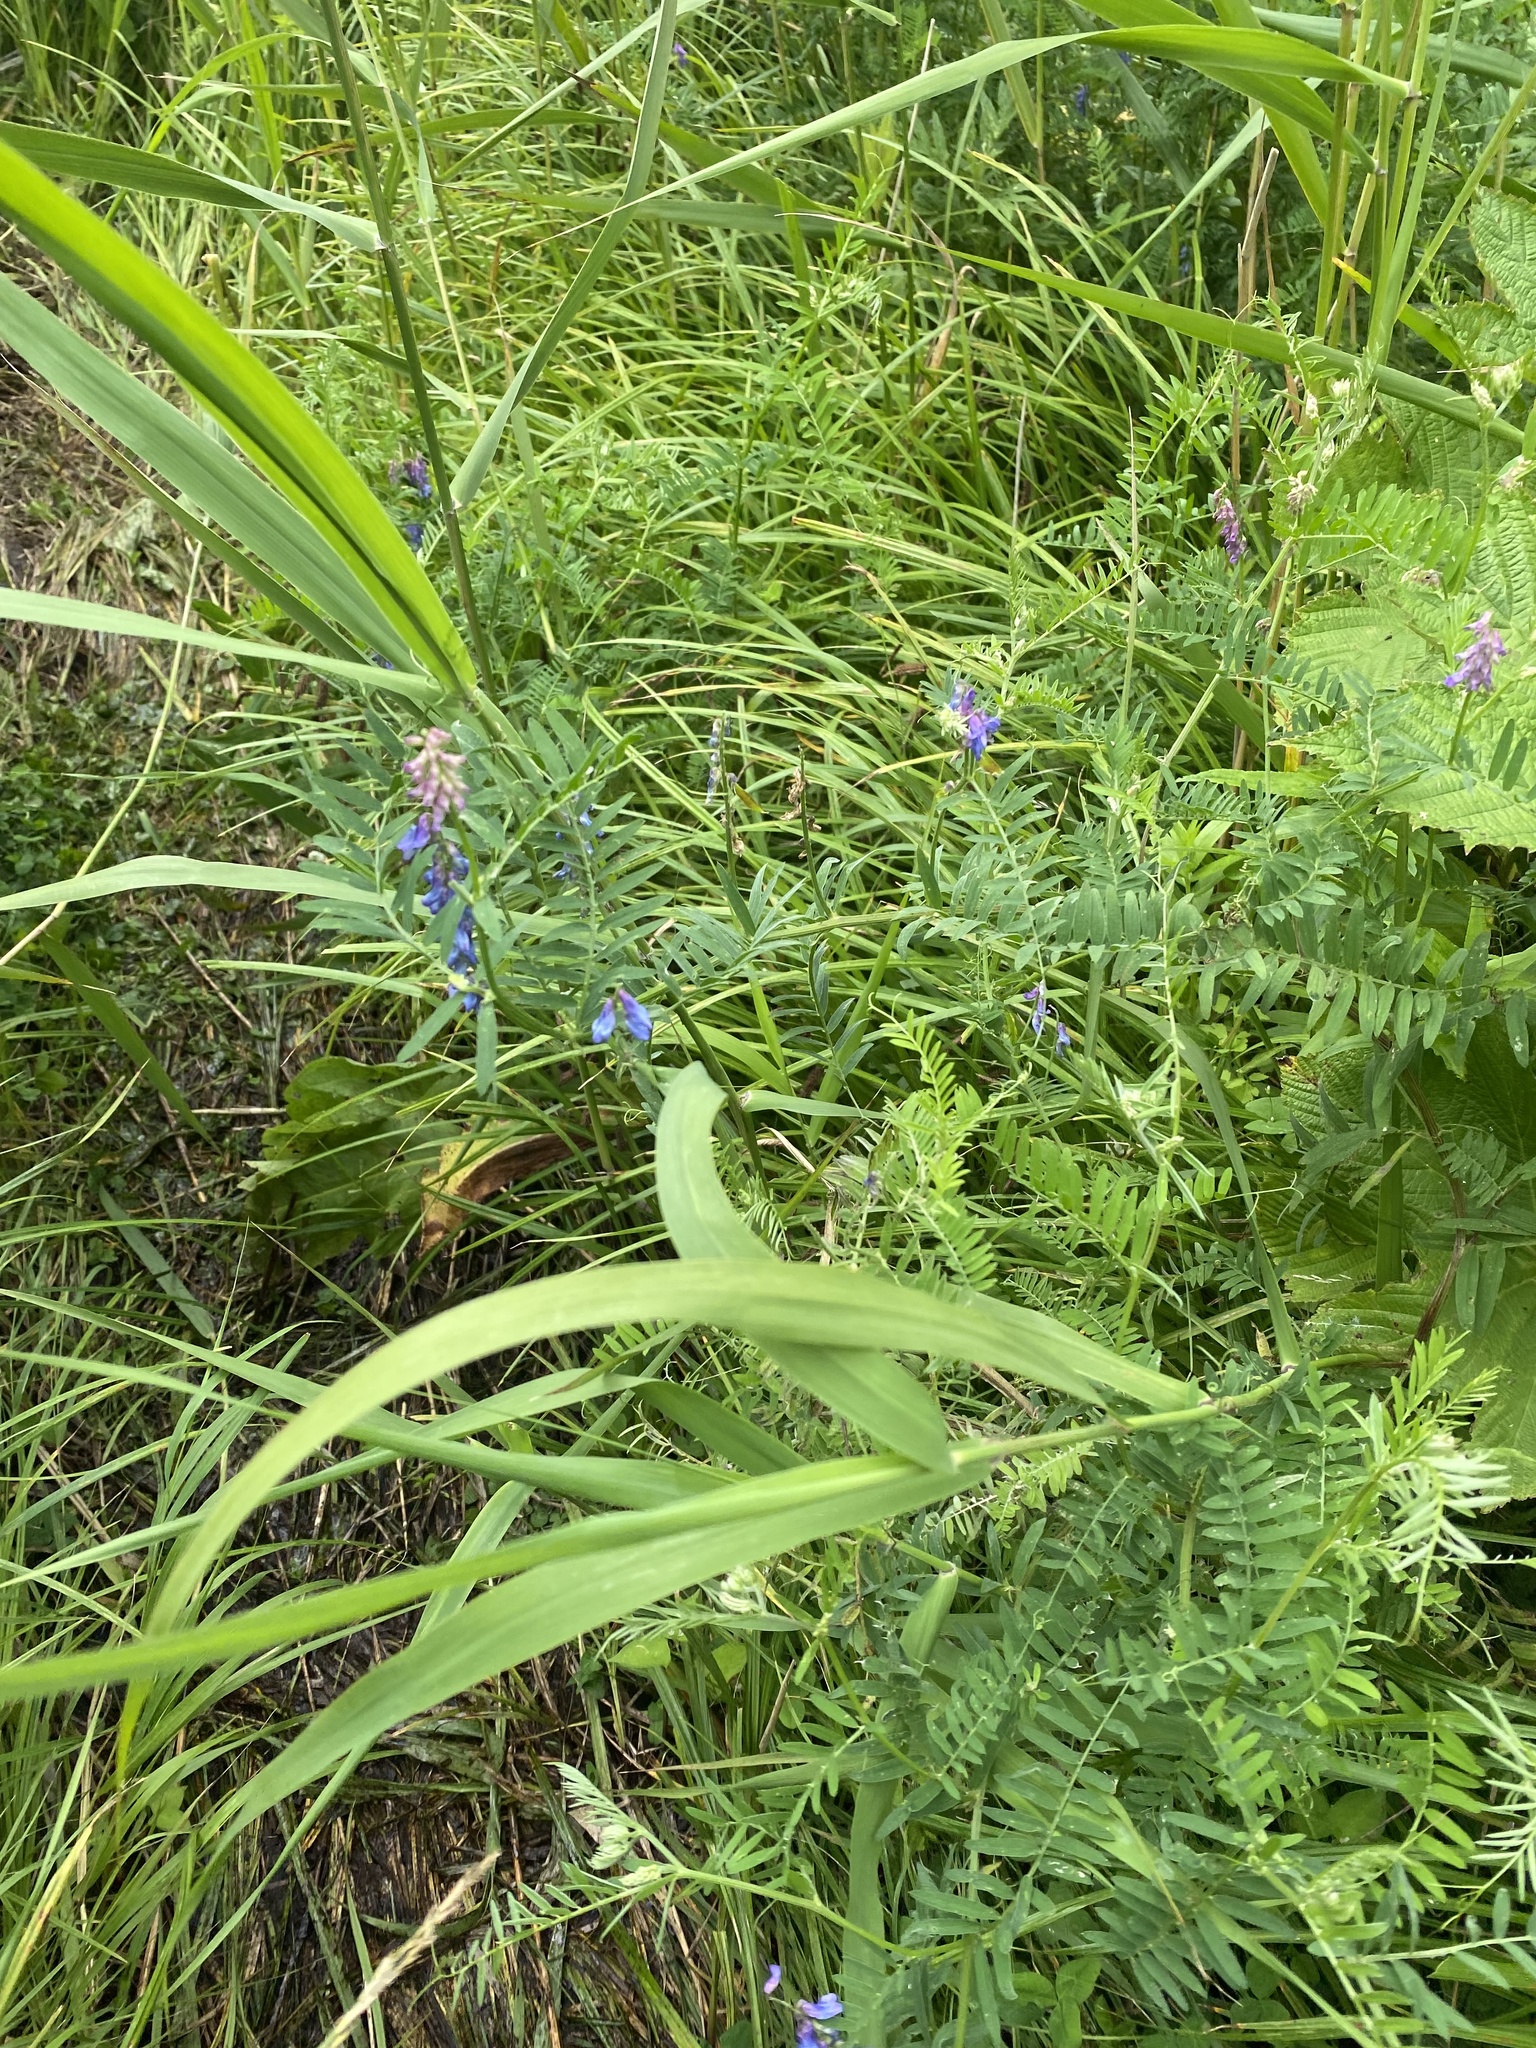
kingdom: Plantae
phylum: Tracheophyta
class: Magnoliopsida
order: Fabales
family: Fabaceae
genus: Vicia
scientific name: Vicia cracca
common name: Bird vetch
